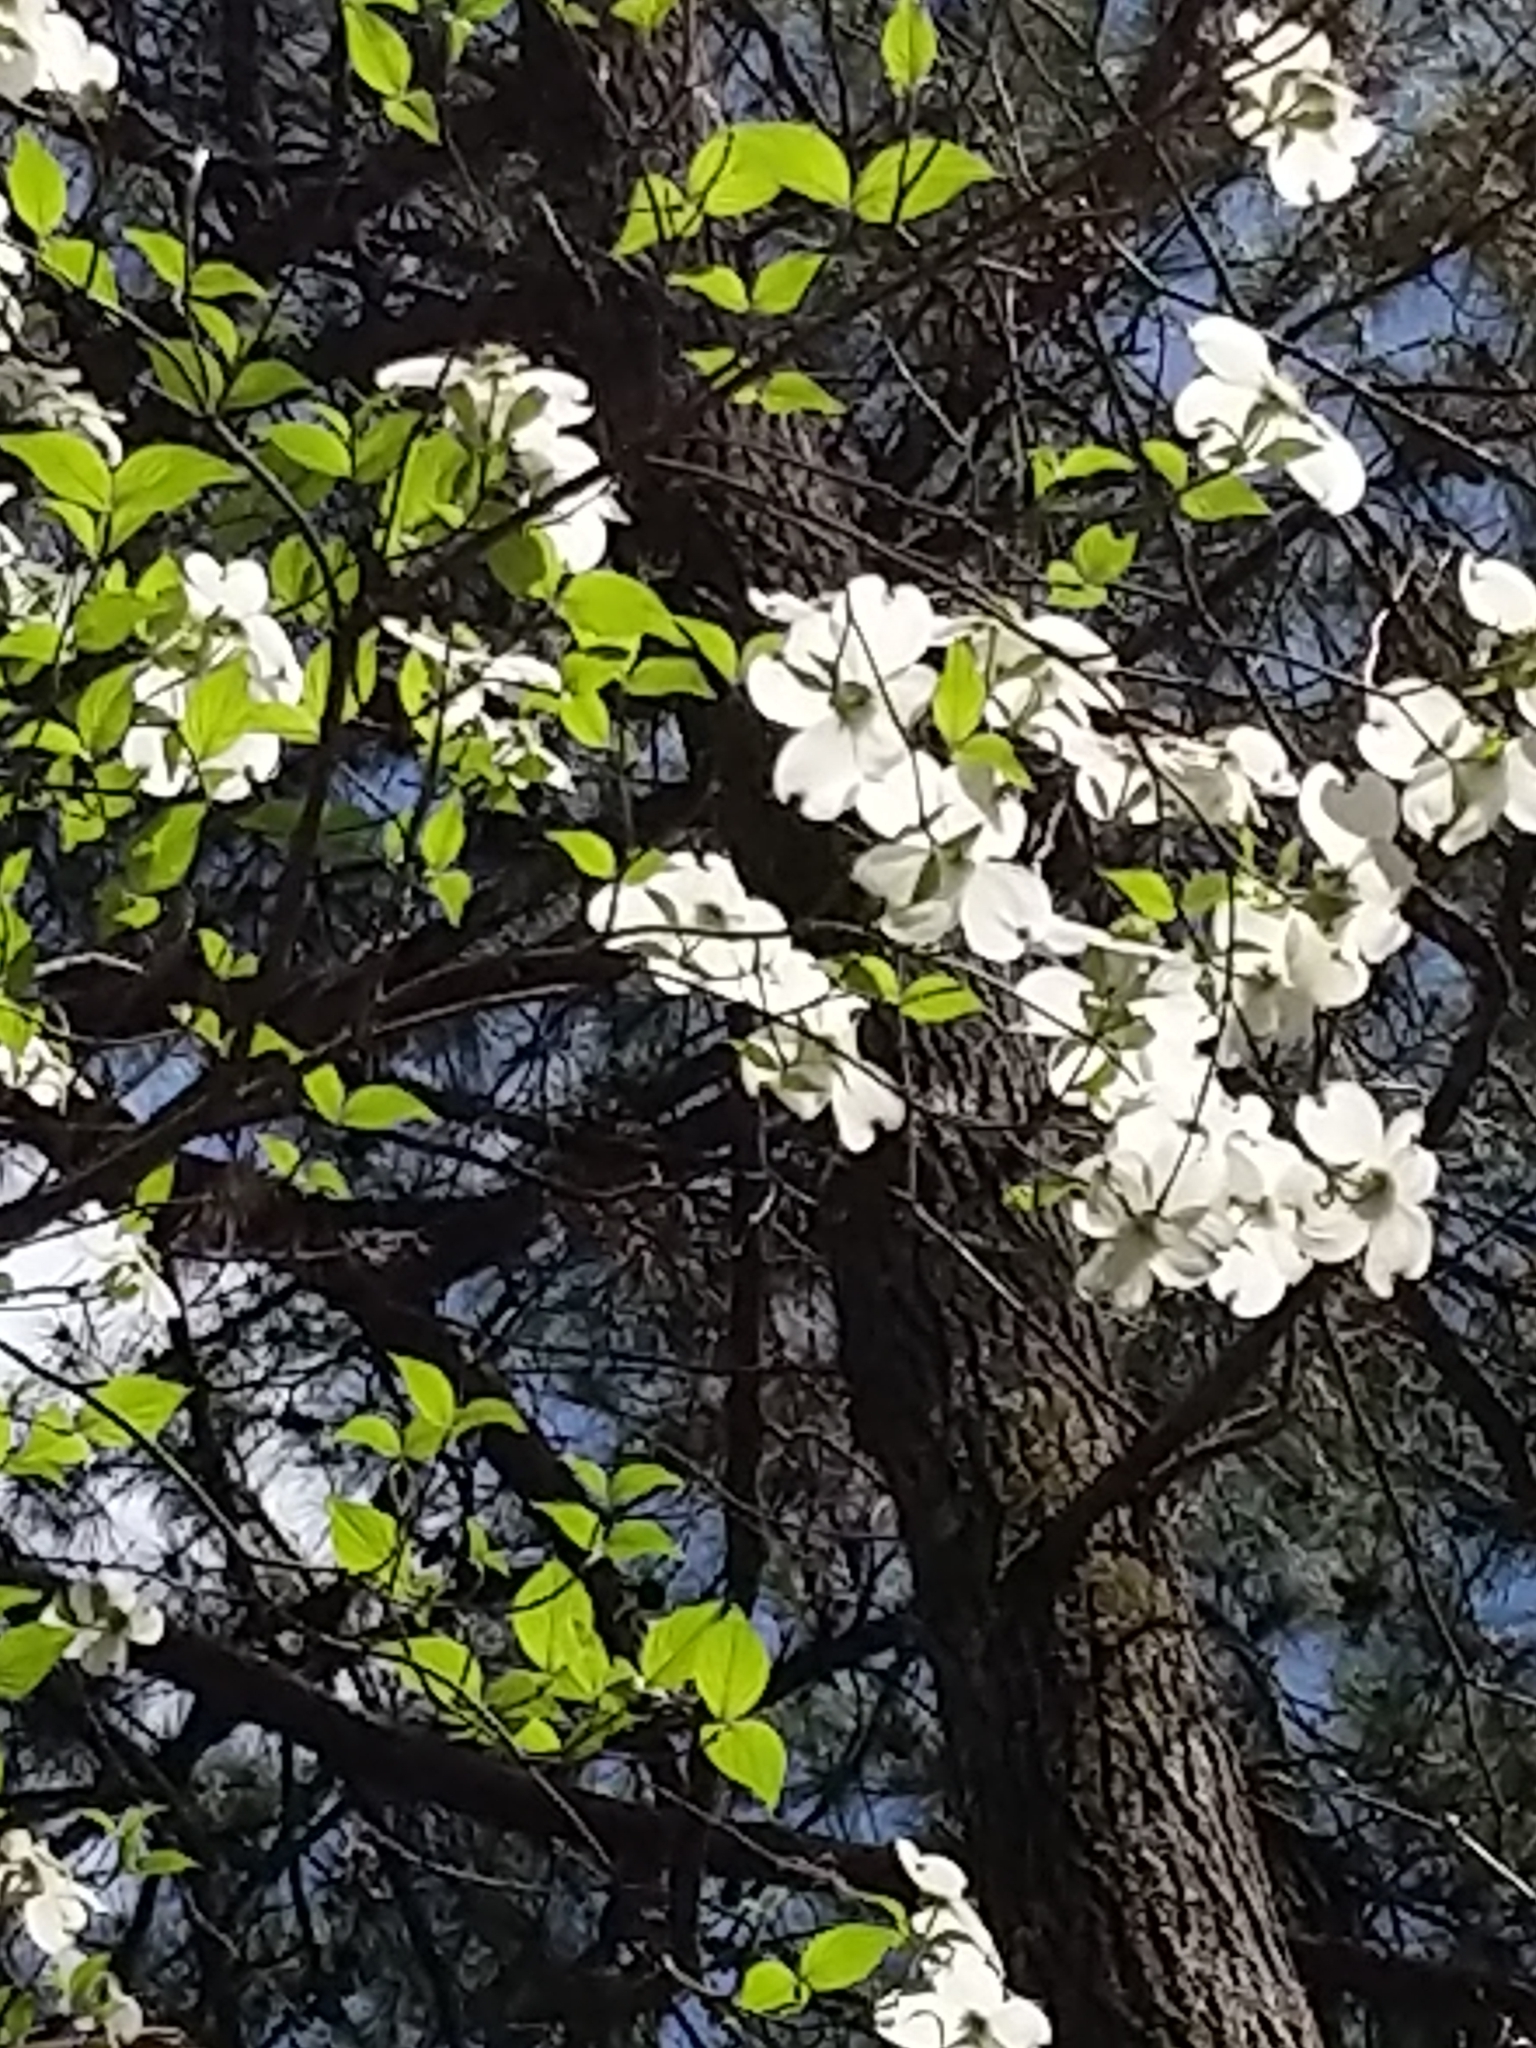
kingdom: Plantae
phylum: Tracheophyta
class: Magnoliopsida
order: Cornales
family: Cornaceae
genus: Cornus
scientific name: Cornus florida
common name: Flowering dogwood
